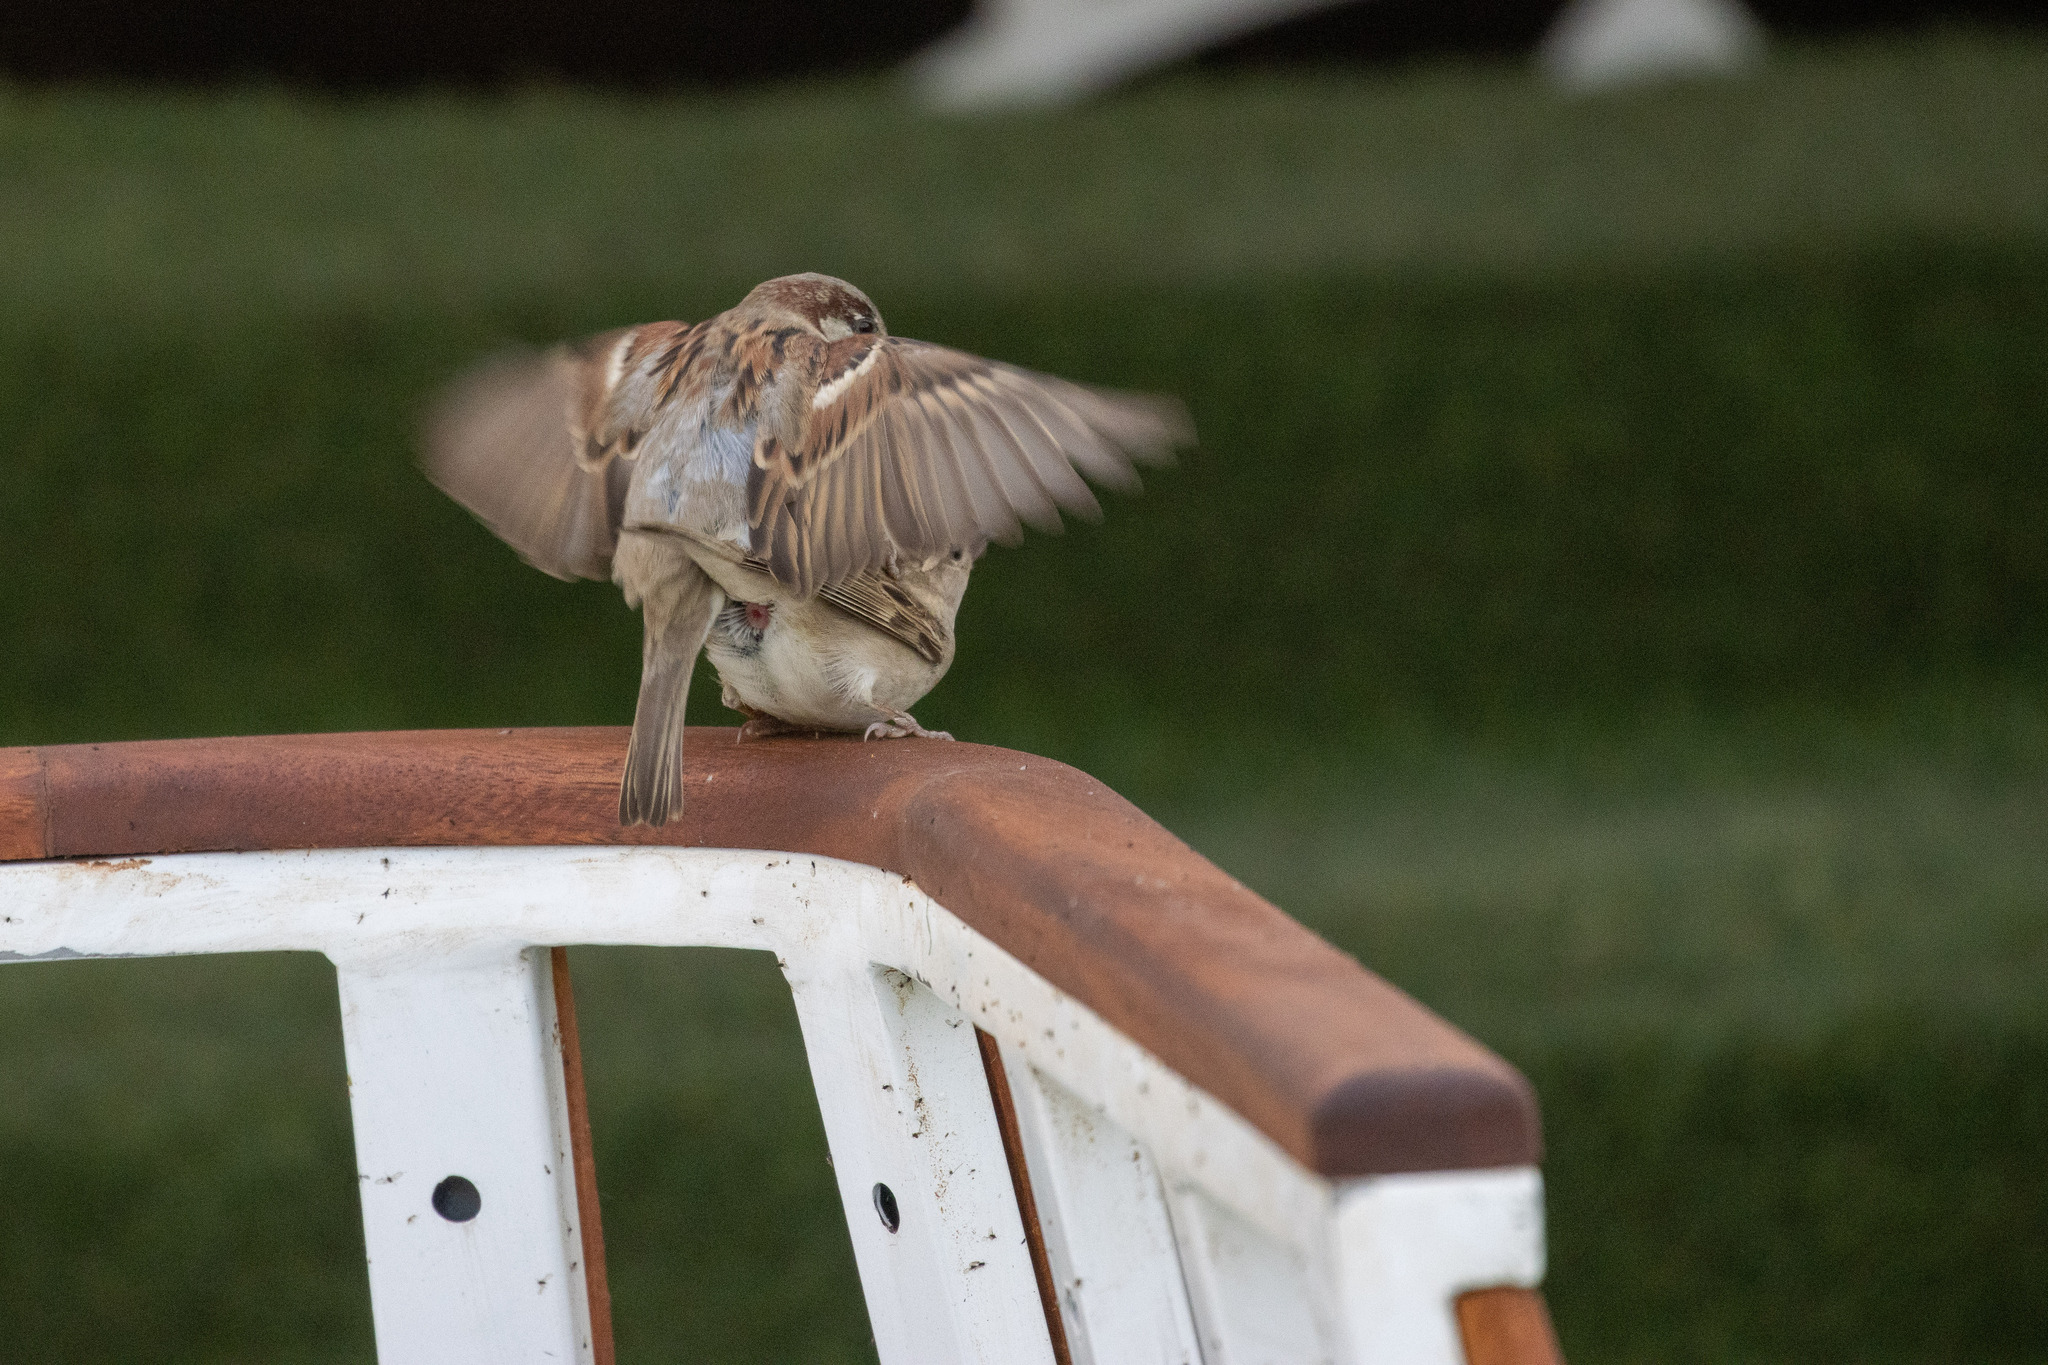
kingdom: Animalia
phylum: Chordata
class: Aves
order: Passeriformes
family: Passeridae
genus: Passer
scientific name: Passer domesticus
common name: House sparrow
